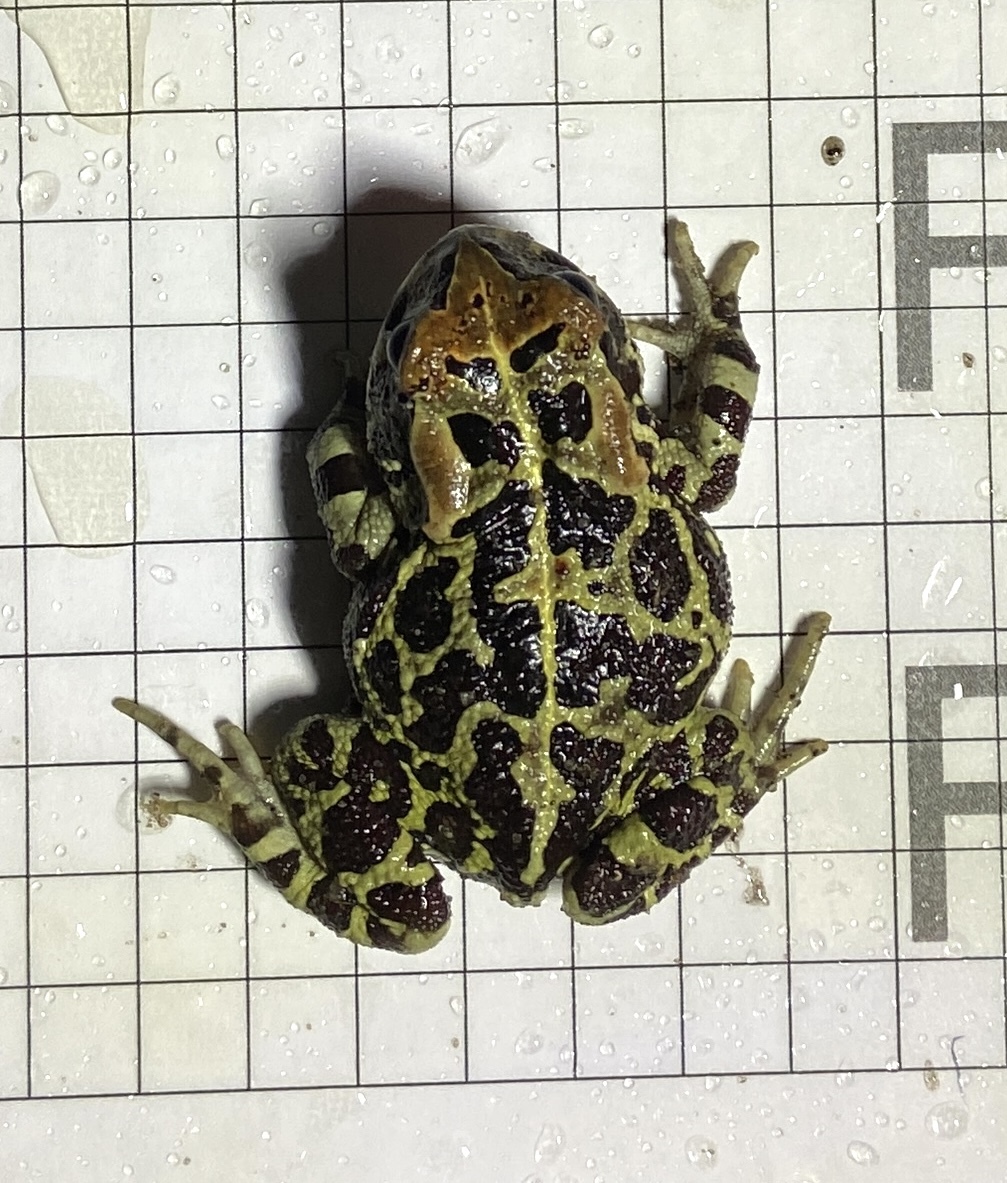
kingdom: Animalia
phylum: Chordata
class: Amphibia
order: Anura
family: Bufonidae
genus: Sclerophrys
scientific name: Sclerophrys pantherina
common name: Panther toad
